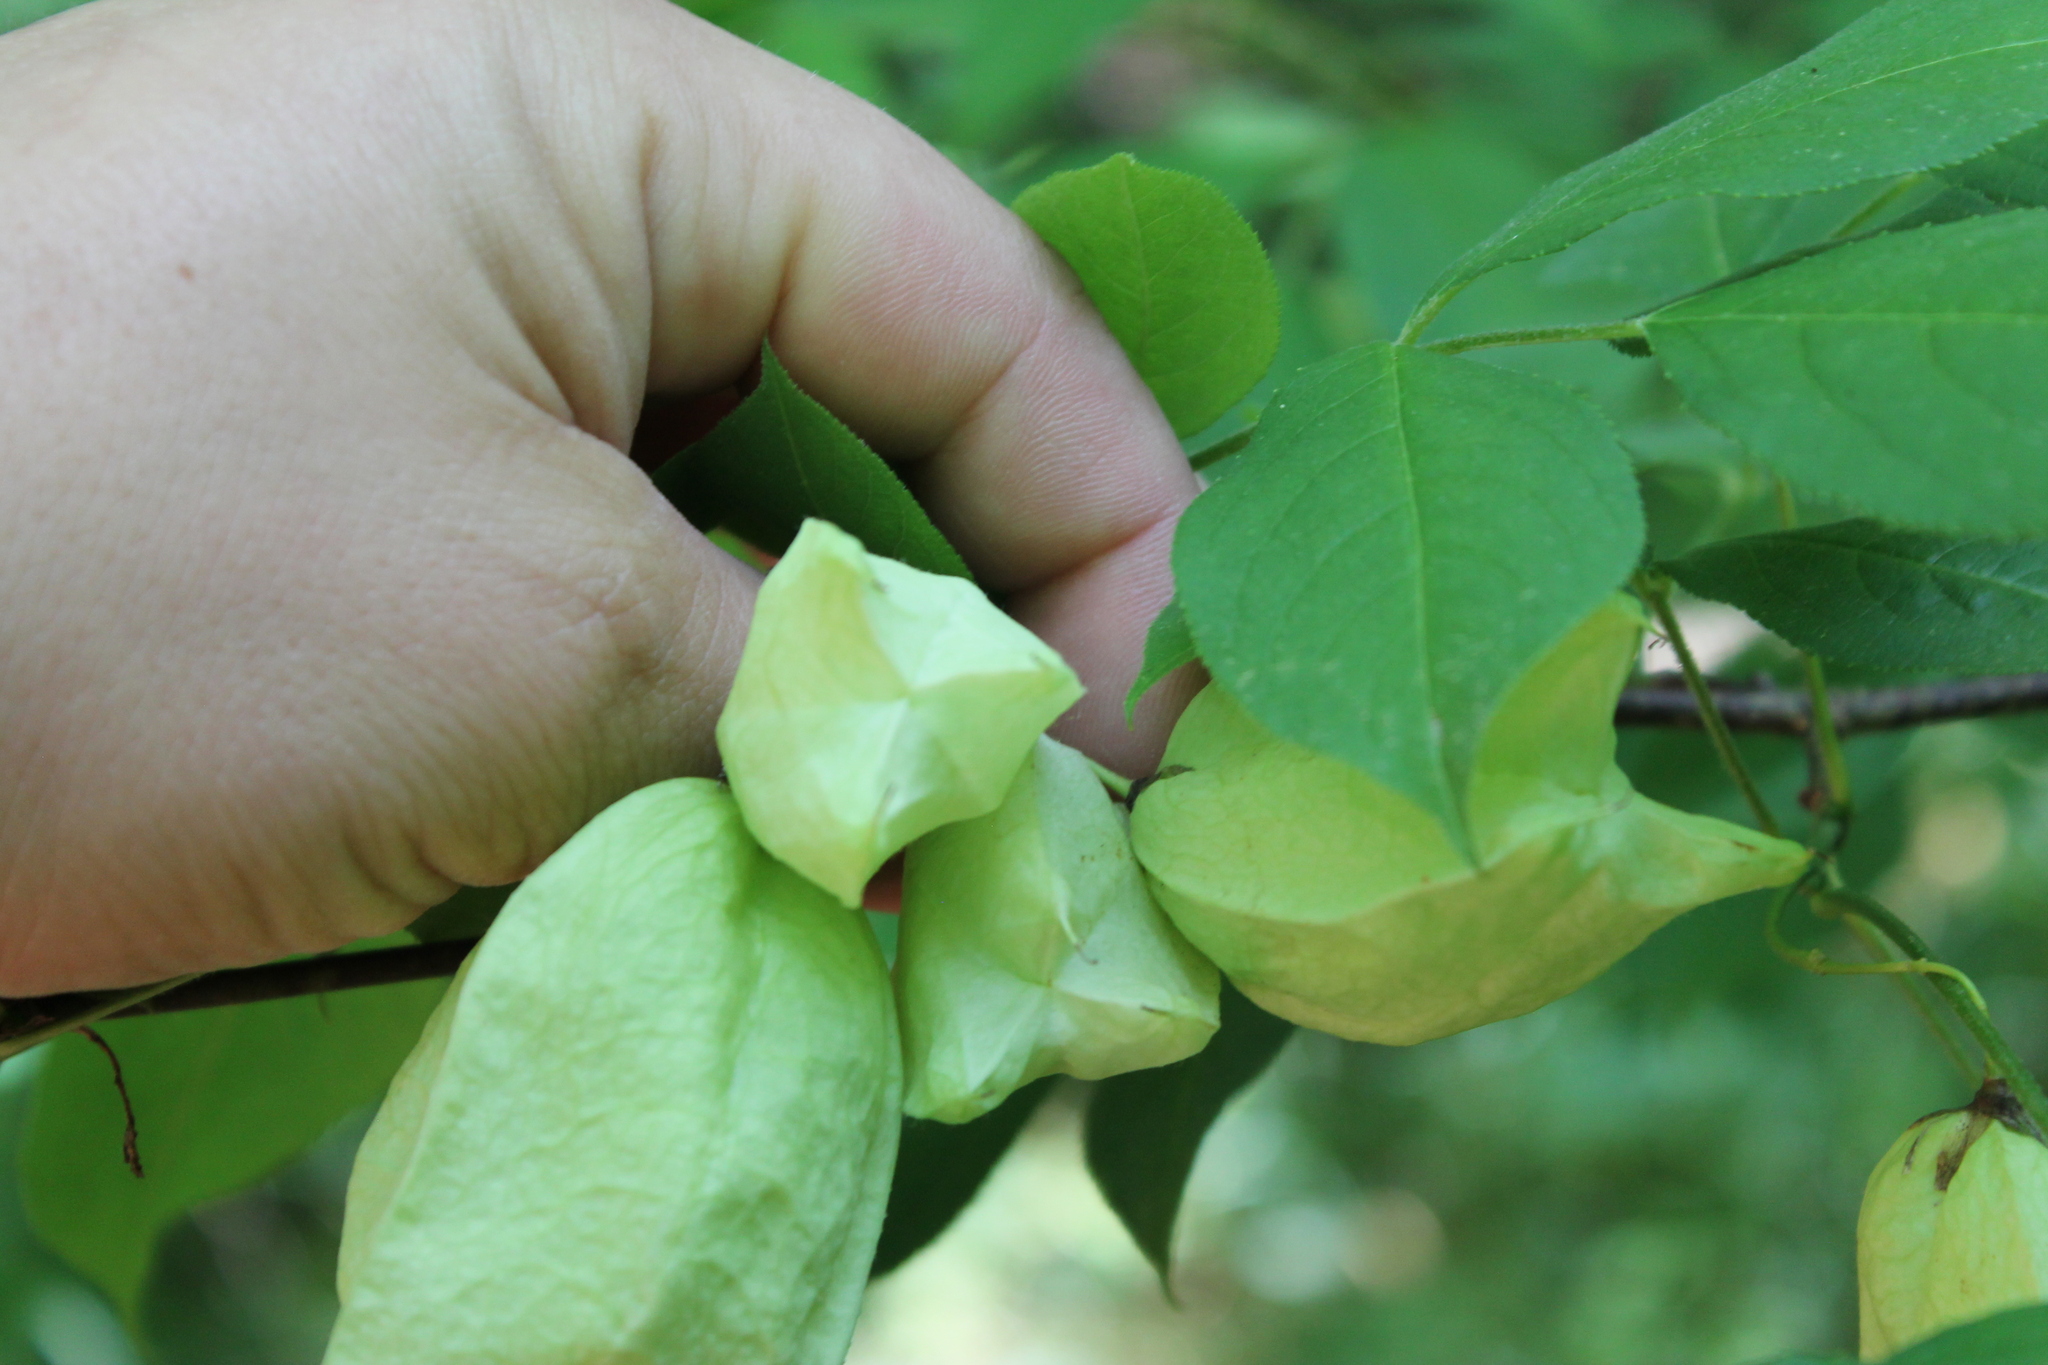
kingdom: Plantae
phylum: Tracheophyta
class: Magnoliopsida
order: Crossosomatales
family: Staphyleaceae
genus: Staphylea
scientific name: Staphylea trifolia
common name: American bladdernut
